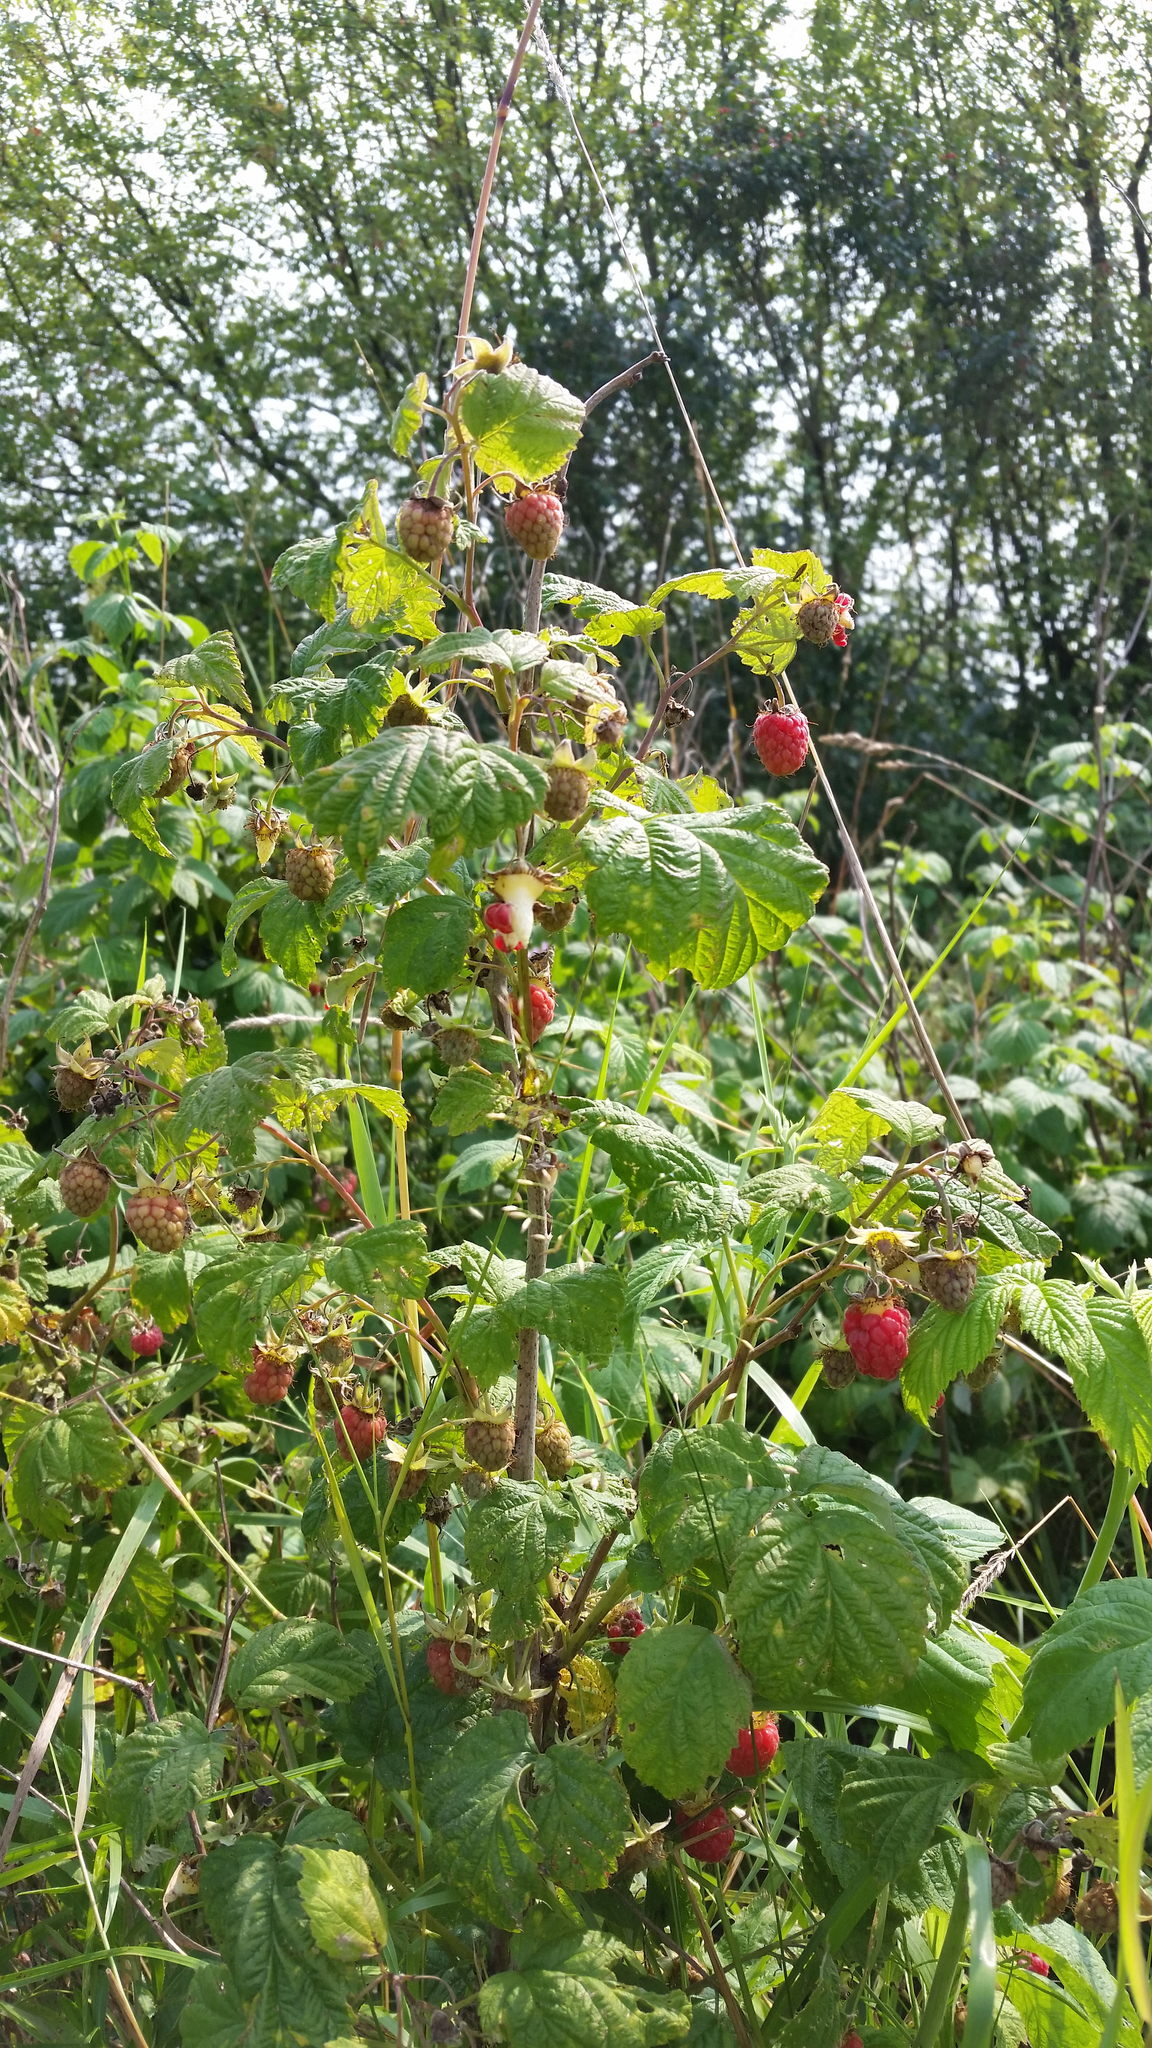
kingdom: Plantae
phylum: Tracheophyta
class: Magnoliopsida
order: Rosales
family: Rosaceae
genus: Rubus
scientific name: Rubus idaeus
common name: Raspberry
